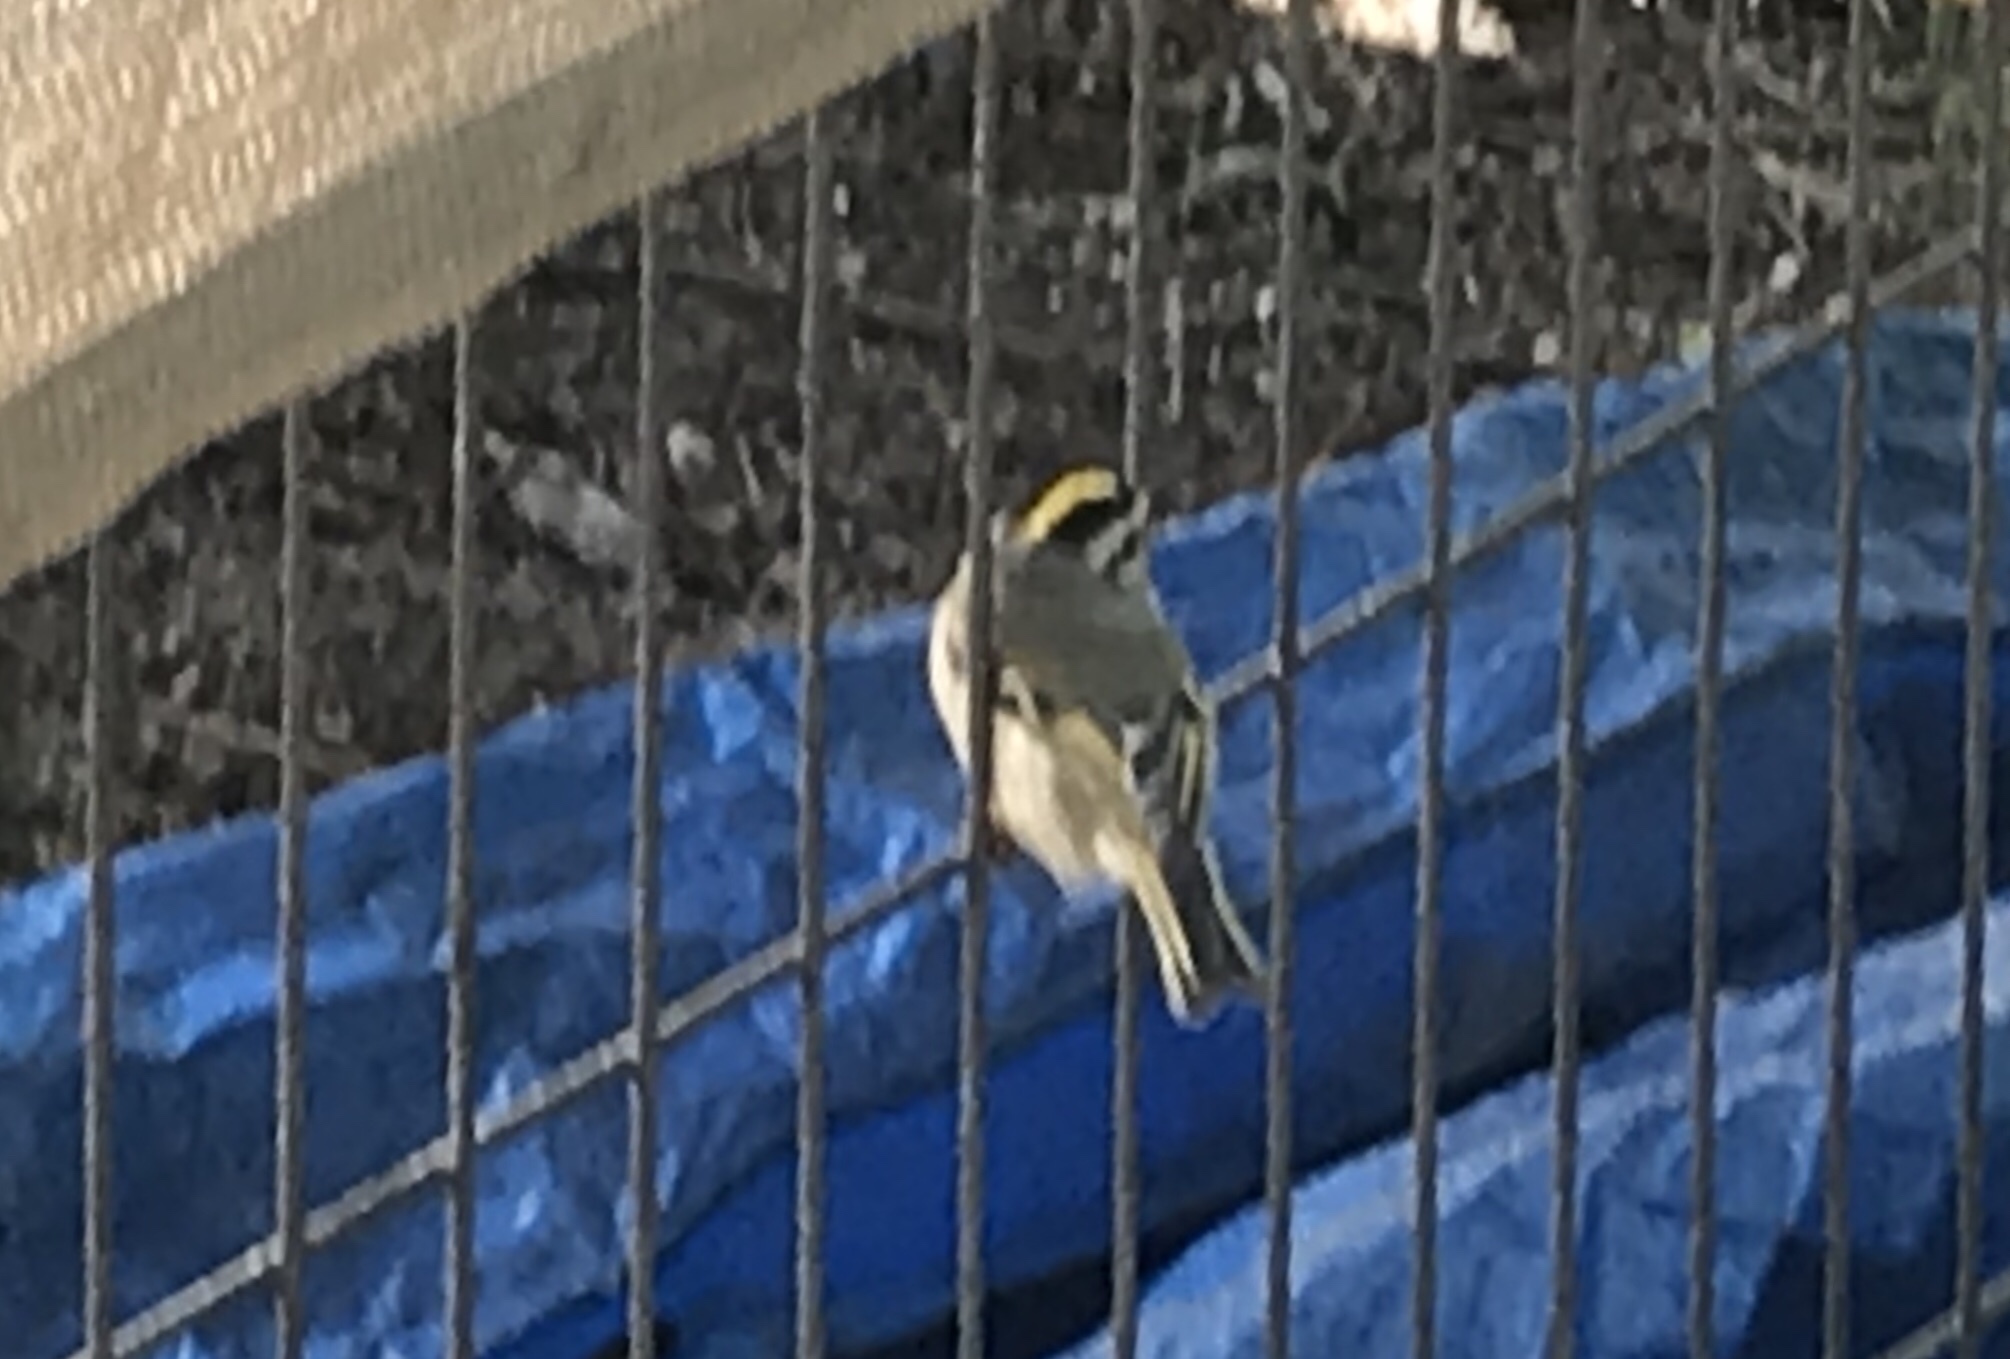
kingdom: Animalia
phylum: Chordata
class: Aves
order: Passeriformes
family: Regulidae
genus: Regulus
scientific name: Regulus satrapa
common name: Golden-crowned kinglet
